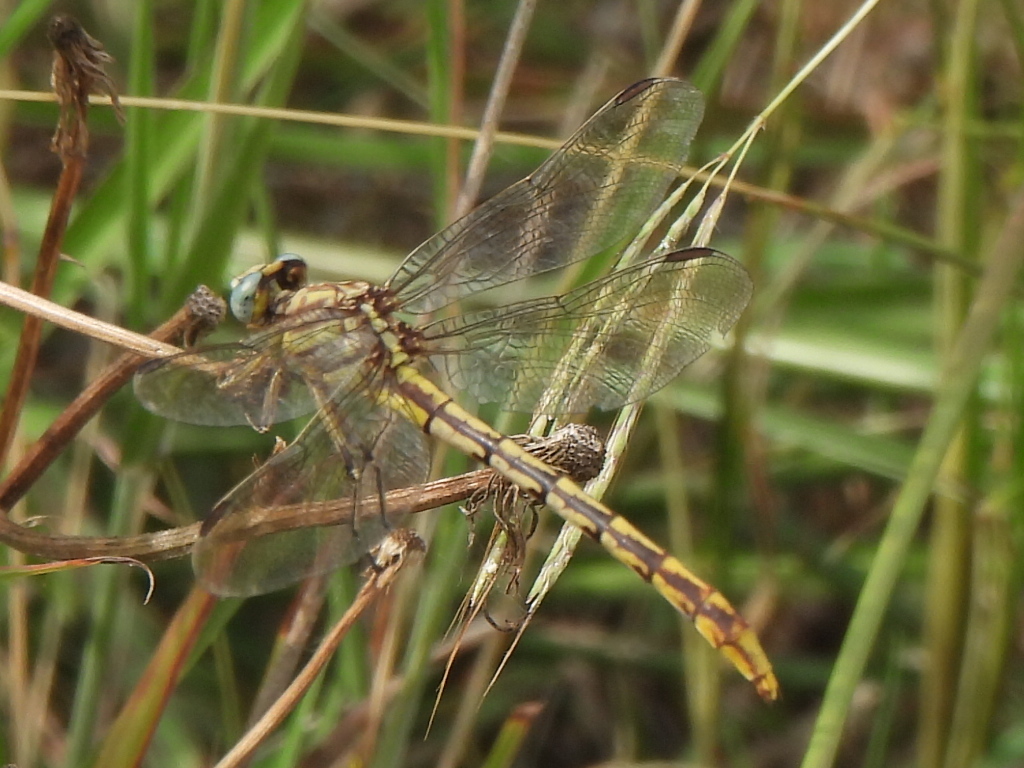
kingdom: Animalia
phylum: Arthropoda
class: Insecta
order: Odonata
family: Gomphidae
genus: Phanogomphus
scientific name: Phanogomphus militaris
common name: Sulphur-tipped clubtail
